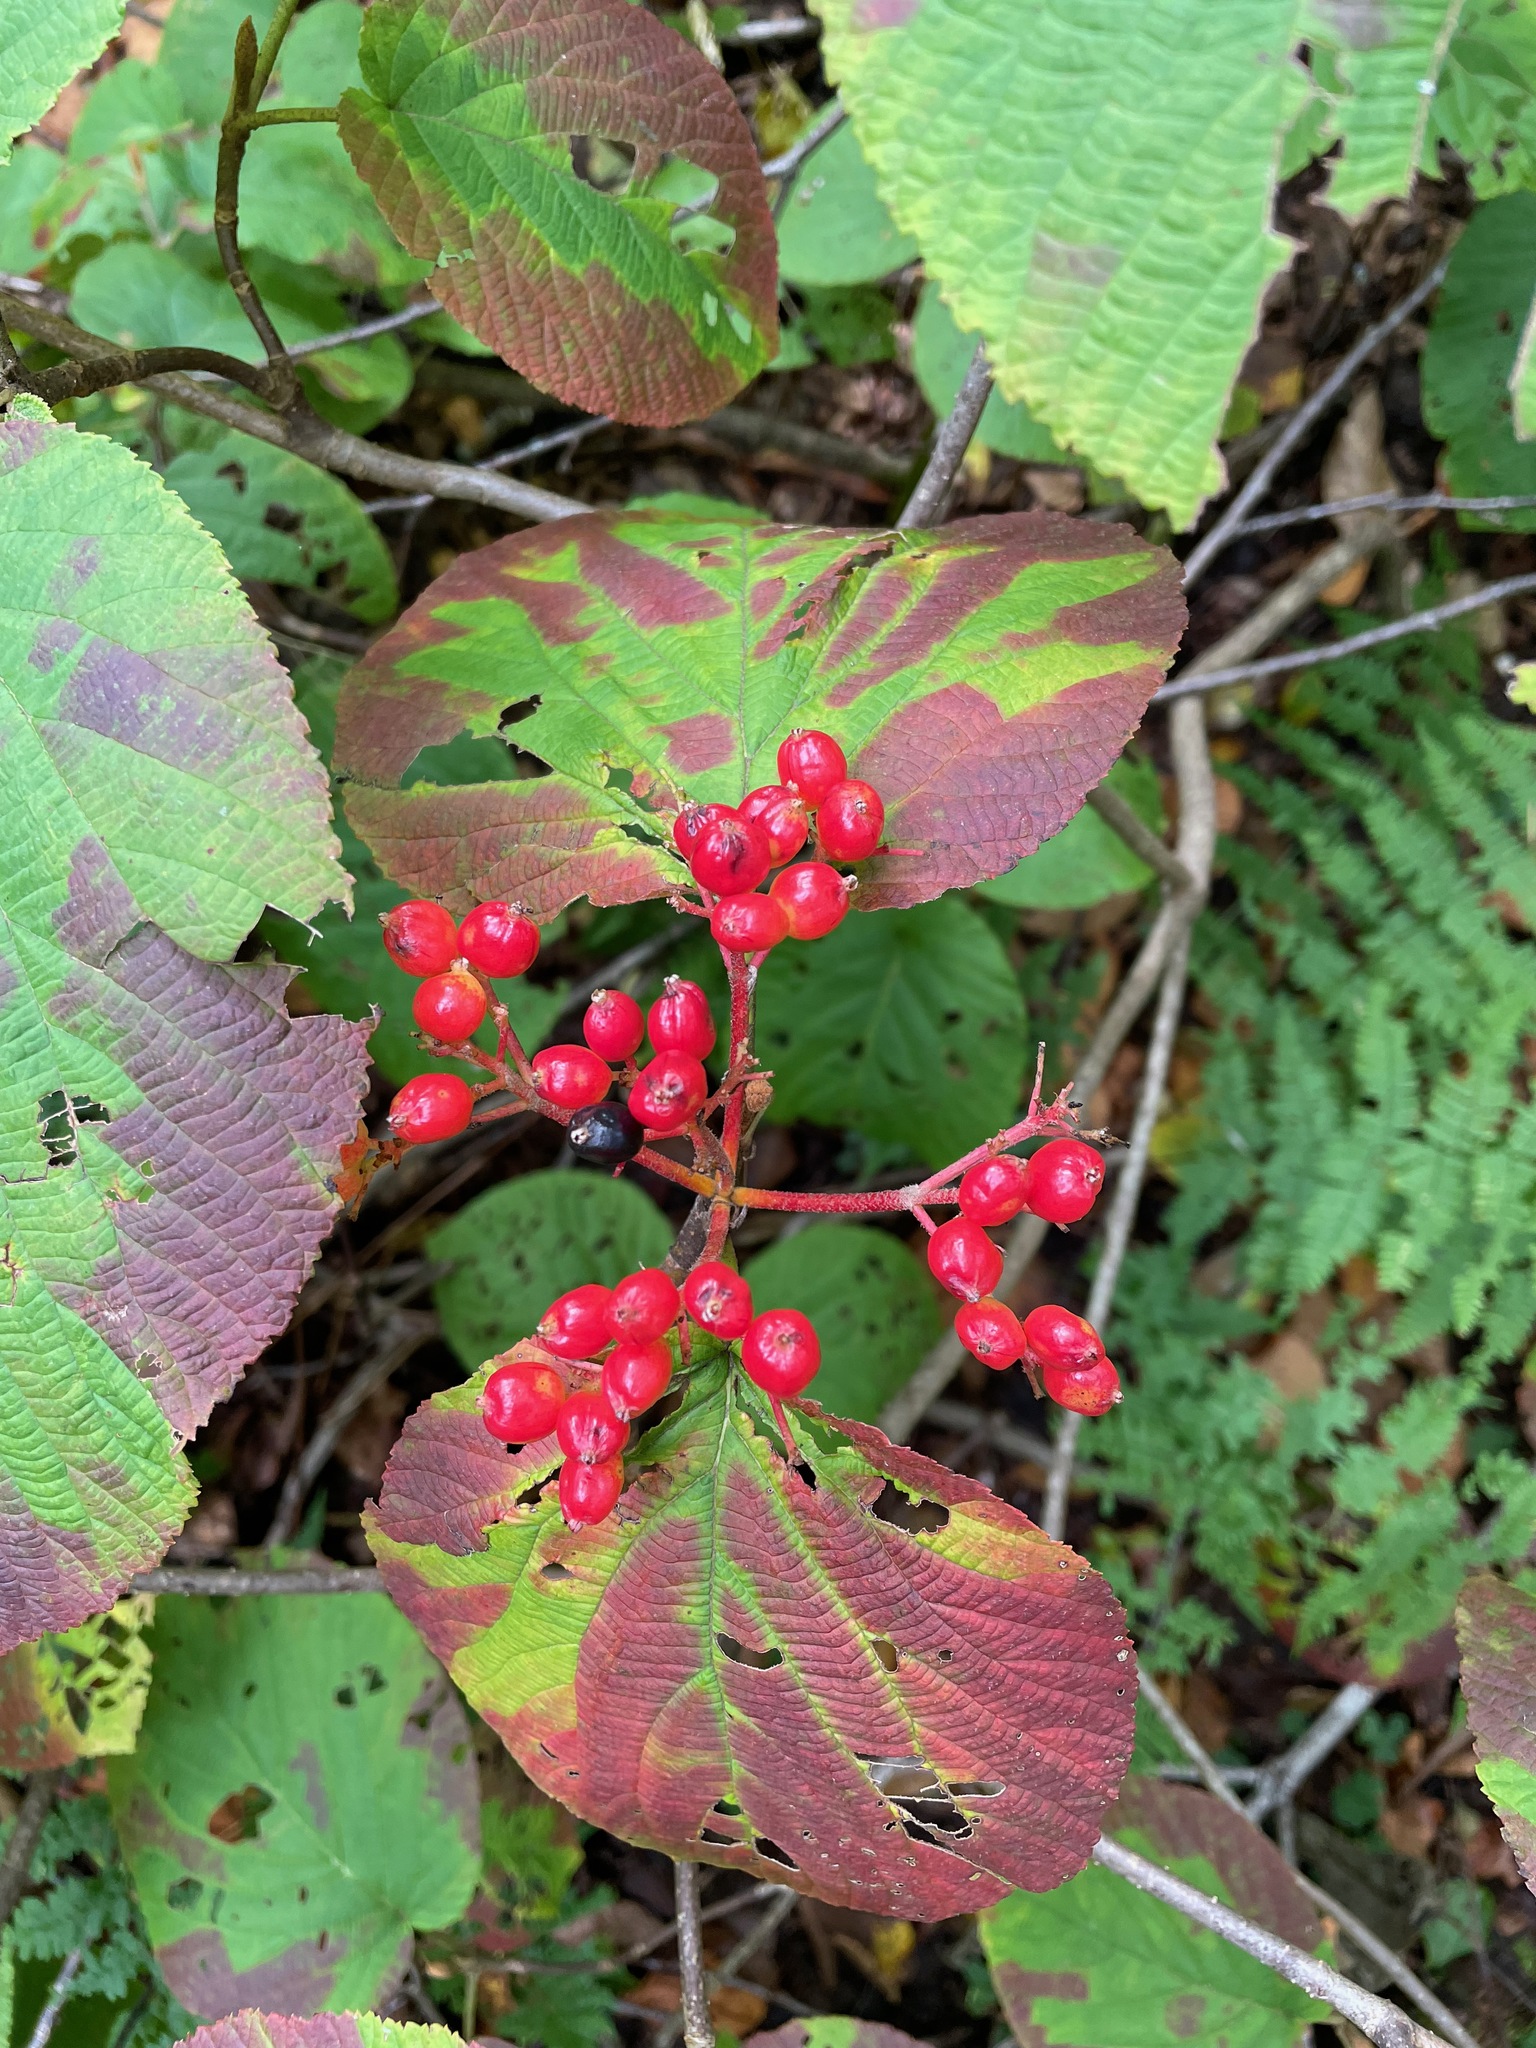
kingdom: Plantae
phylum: Tracheophyta
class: Magnoliopsida
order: Dipsacales
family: Viburnaceae
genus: Viburnum
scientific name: Viburnum lantanoides
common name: Hobblebush
